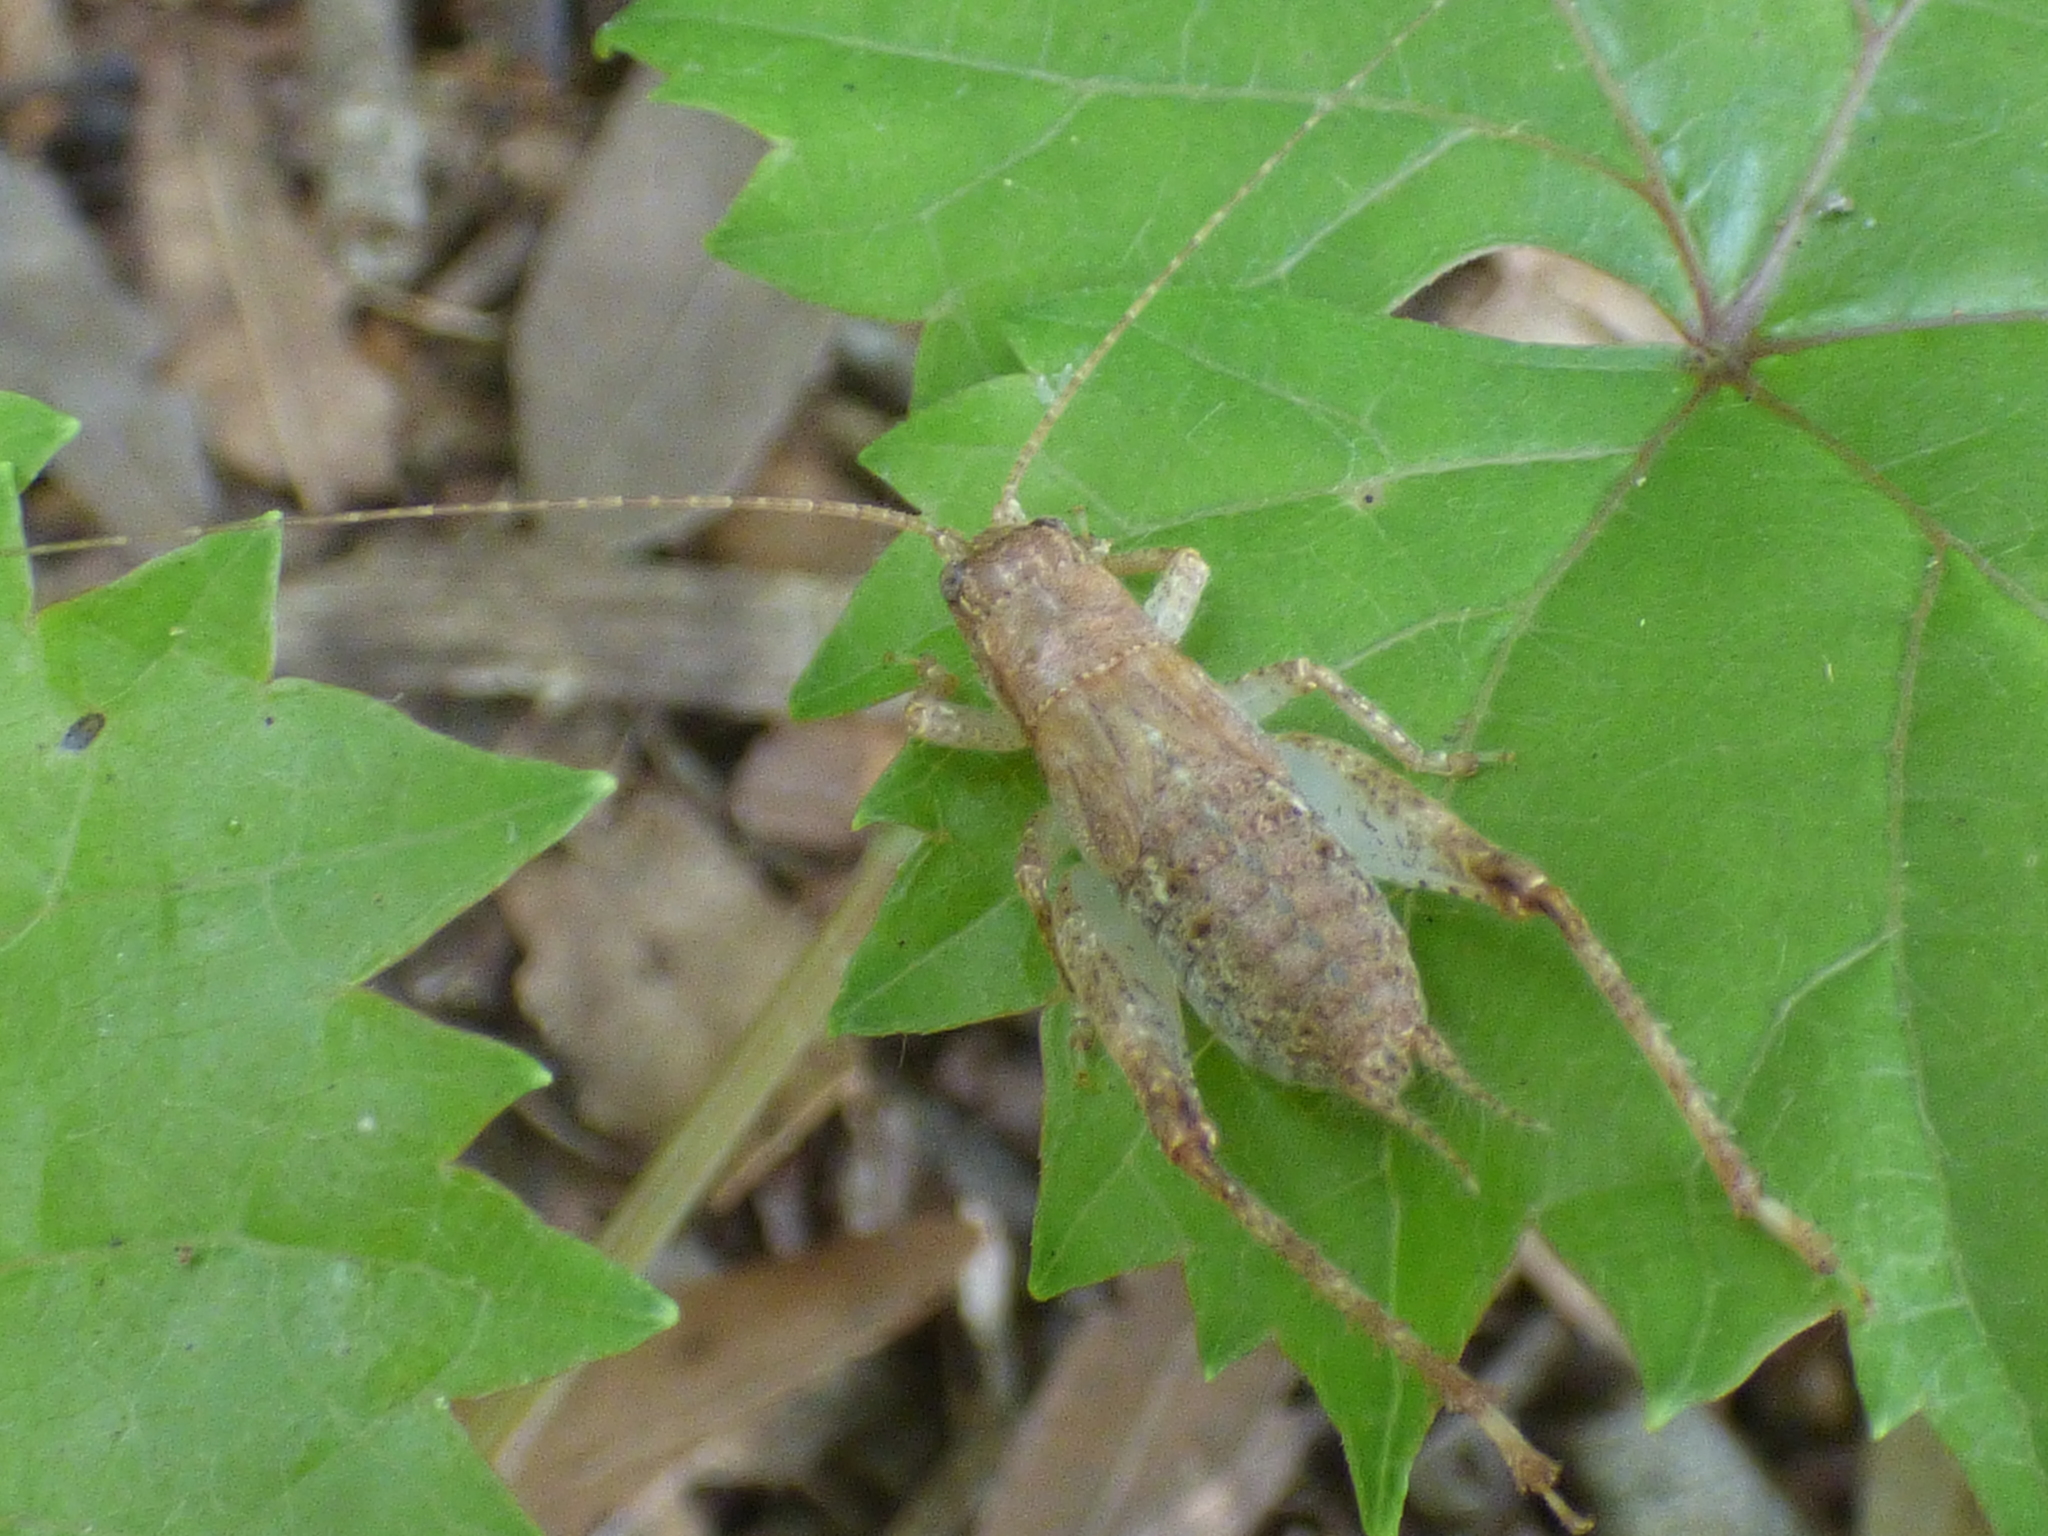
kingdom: Animalia
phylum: Arthropoda
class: Insecta
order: Orthoptera
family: Gryllidae
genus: Hapithus
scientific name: Hapithus luteolira
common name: False jumping bush cricket
